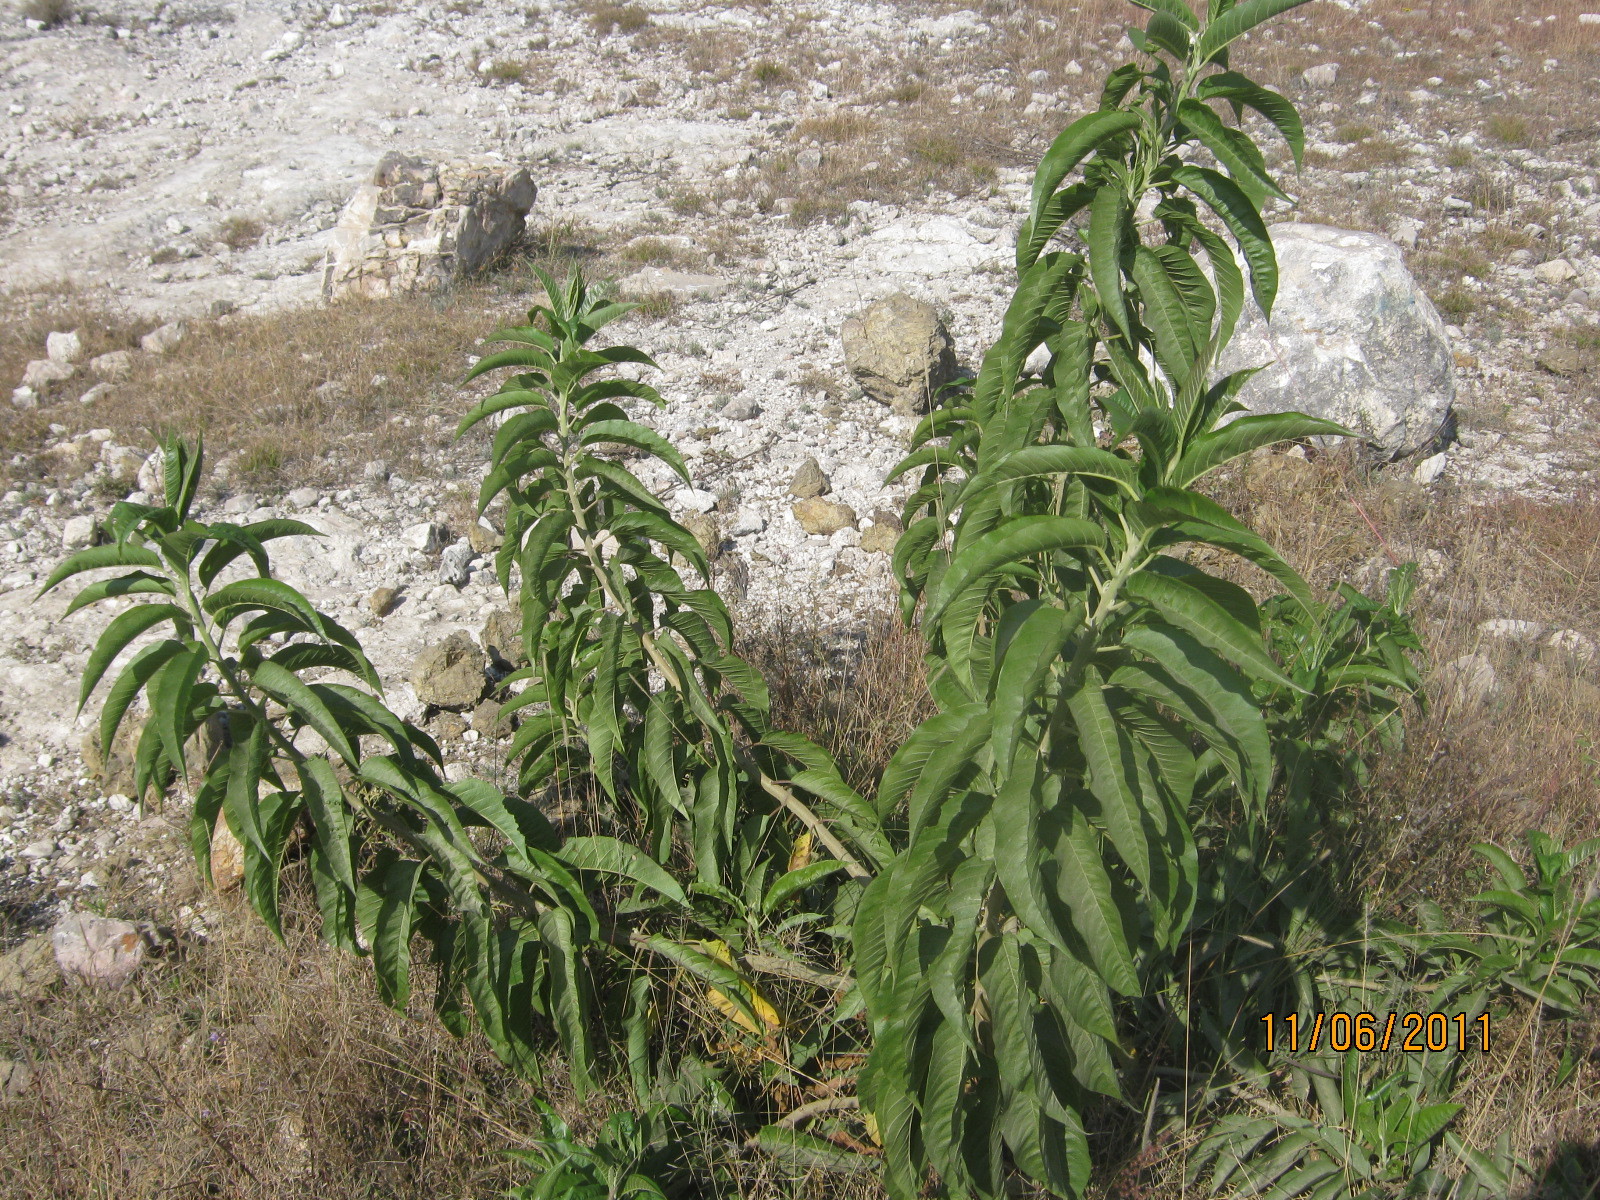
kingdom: Plantae
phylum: Tracheophyta
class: Magnoliopsida
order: Solanales
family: Convolvulaceae
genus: Ipomoea
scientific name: Ipomoea murucoides
